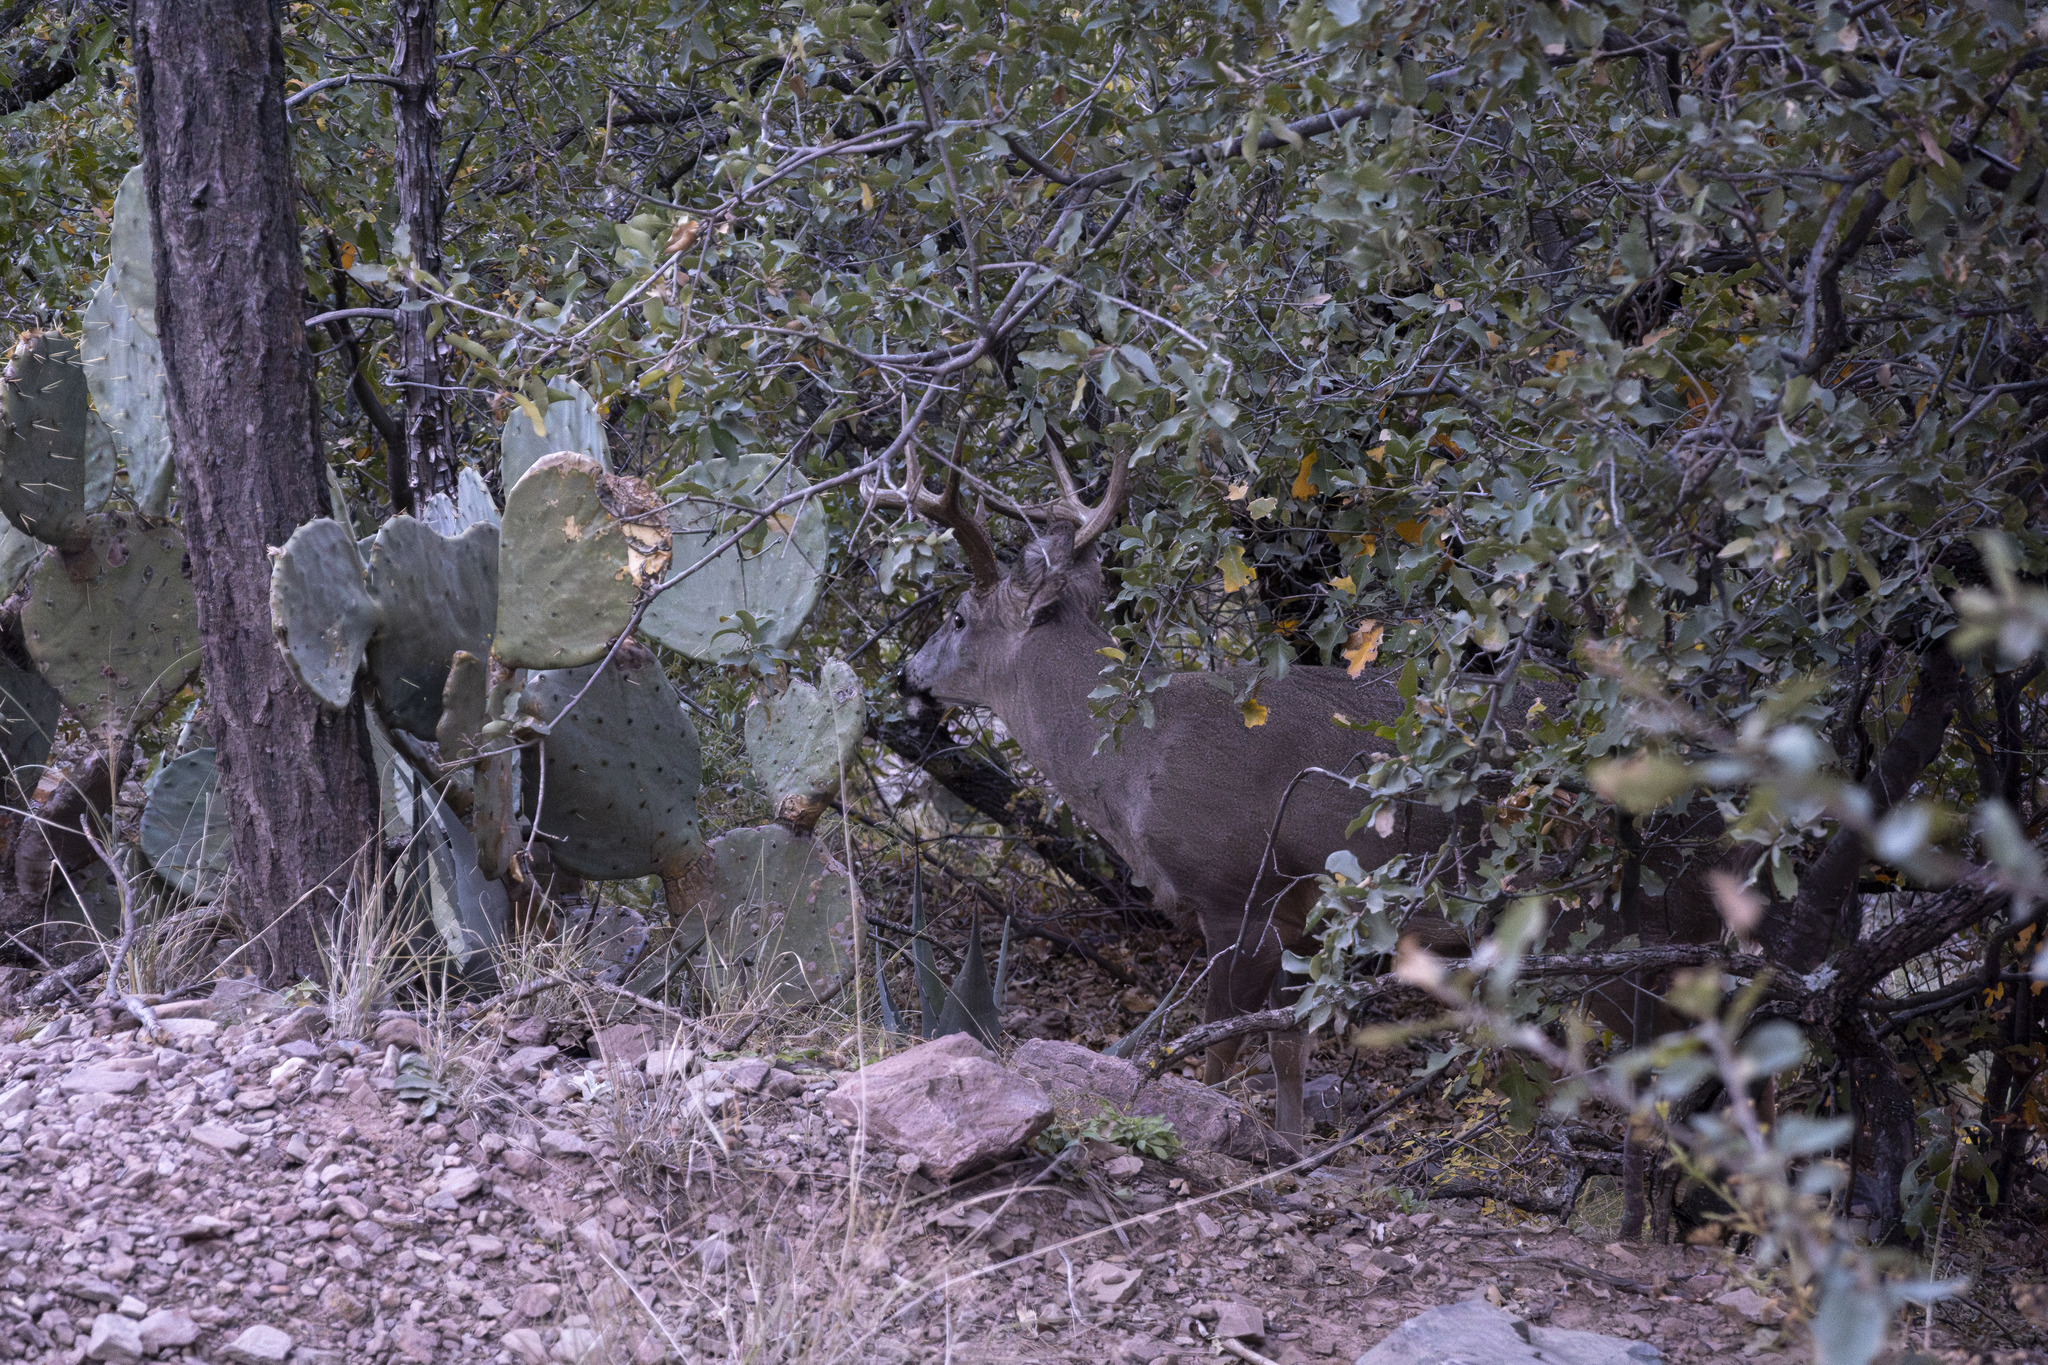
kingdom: Animalia
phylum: Chordata
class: Mammalia
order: Artiodactyla
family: Cervidae
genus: Odocoileus
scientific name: Odocoileus virginianus
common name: White-tailed deer
